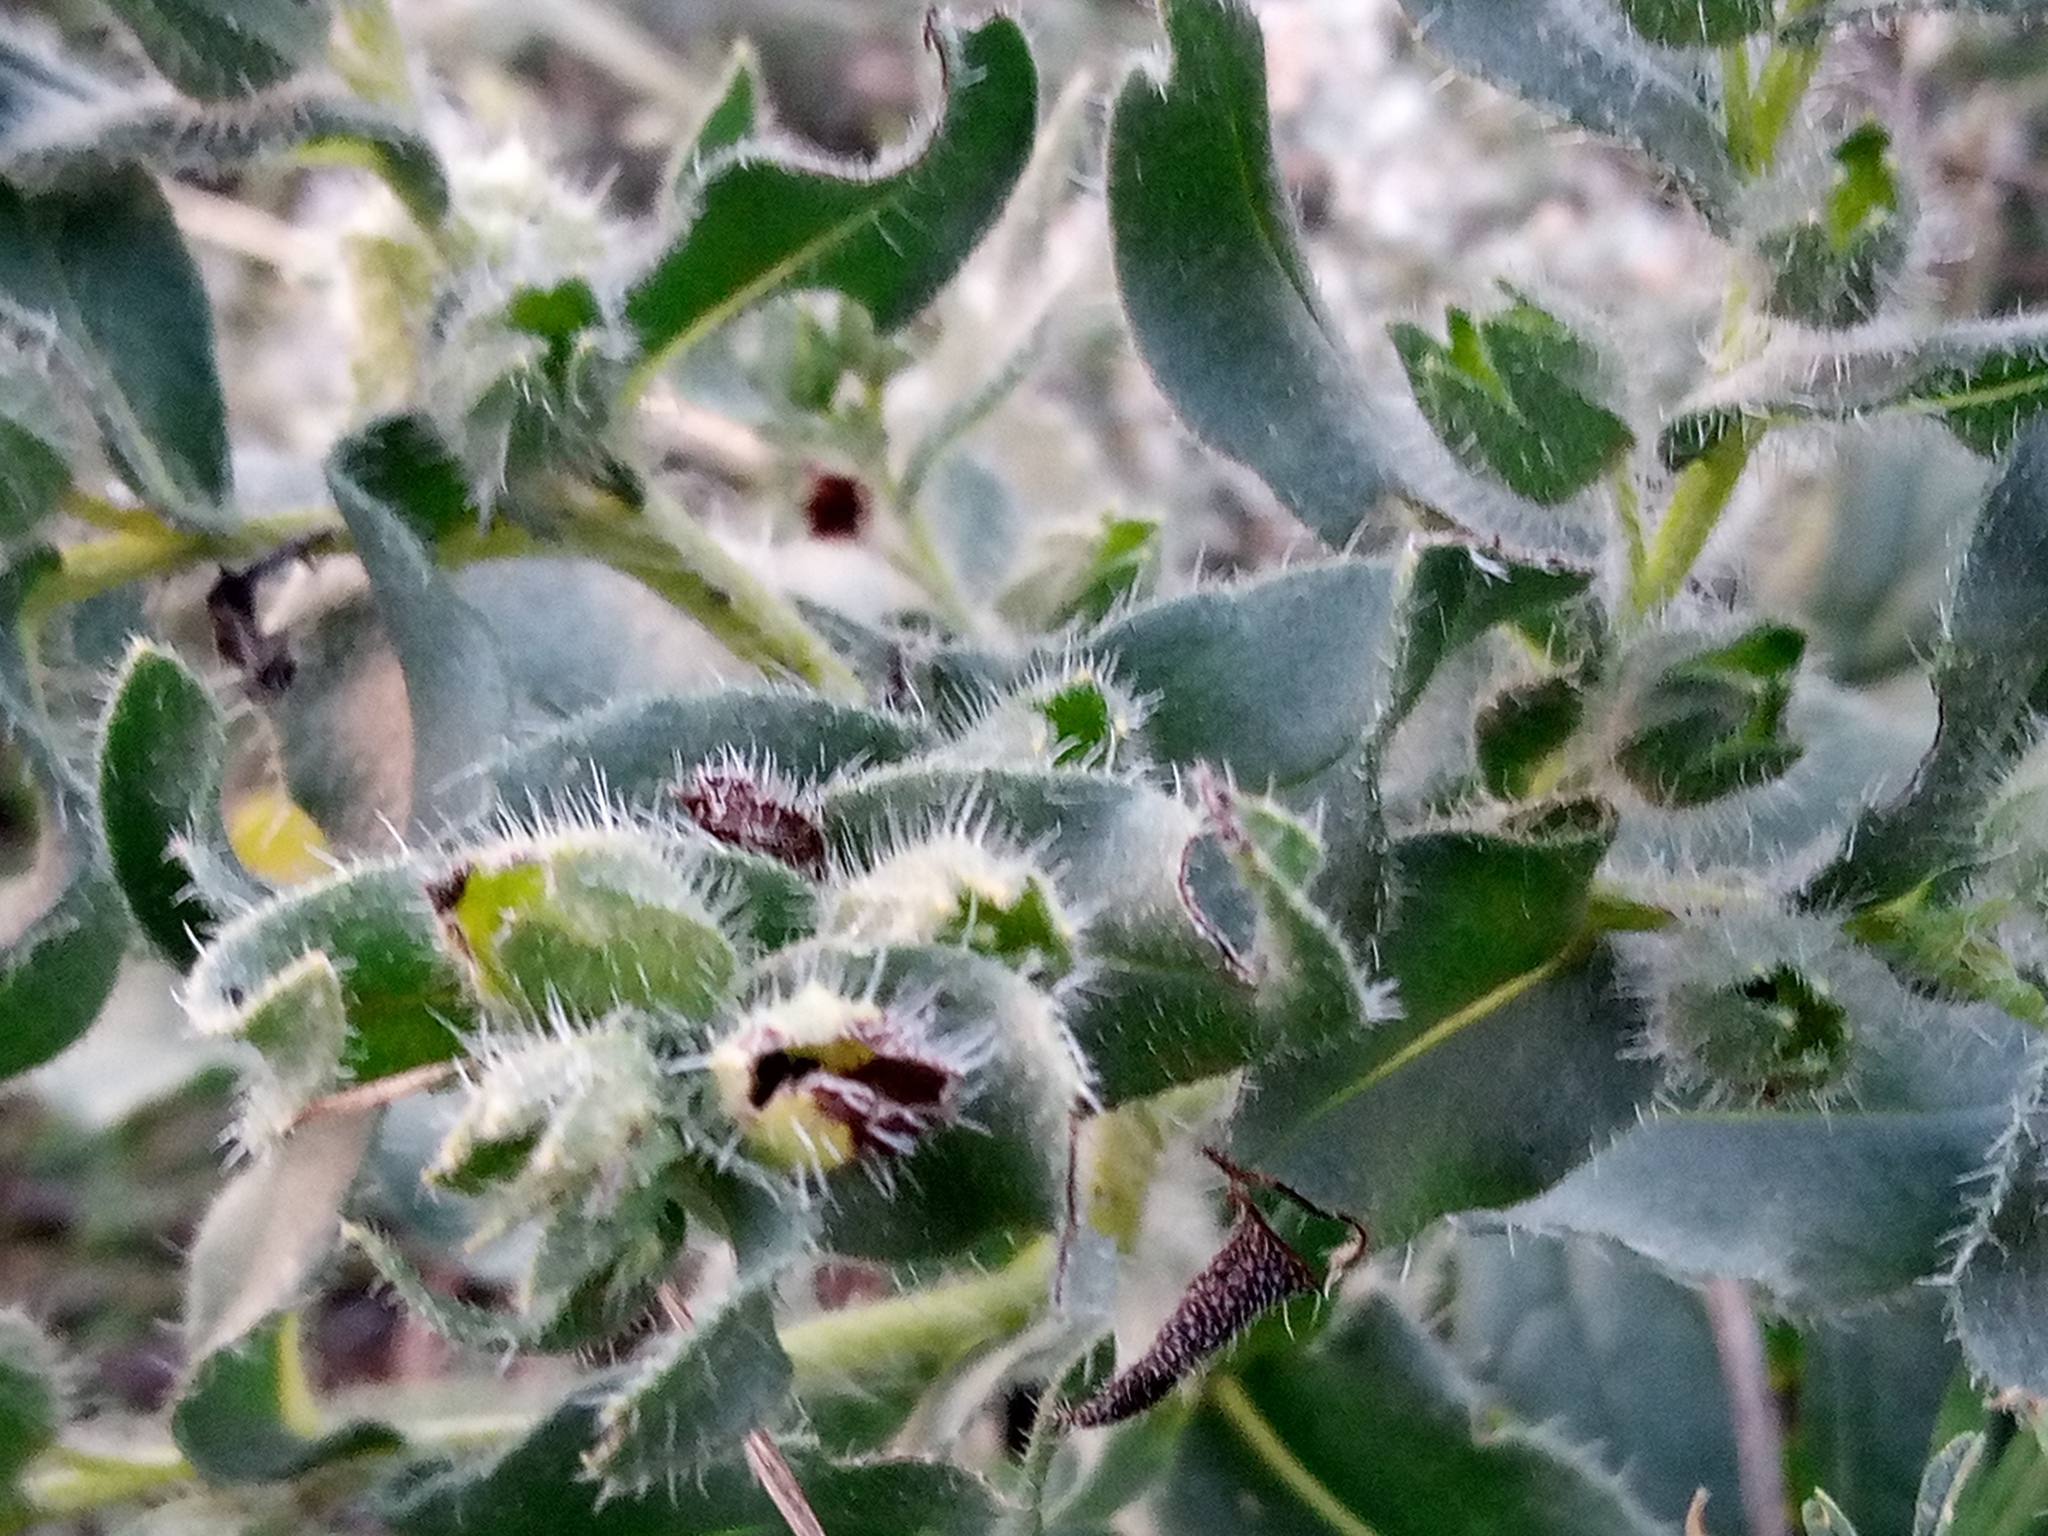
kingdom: Plantae
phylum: Tracheophyta
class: Magnoliopsida
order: Boraginales
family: Boraginaceae
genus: Nonea
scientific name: Nonea pulla
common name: Brown nonea
